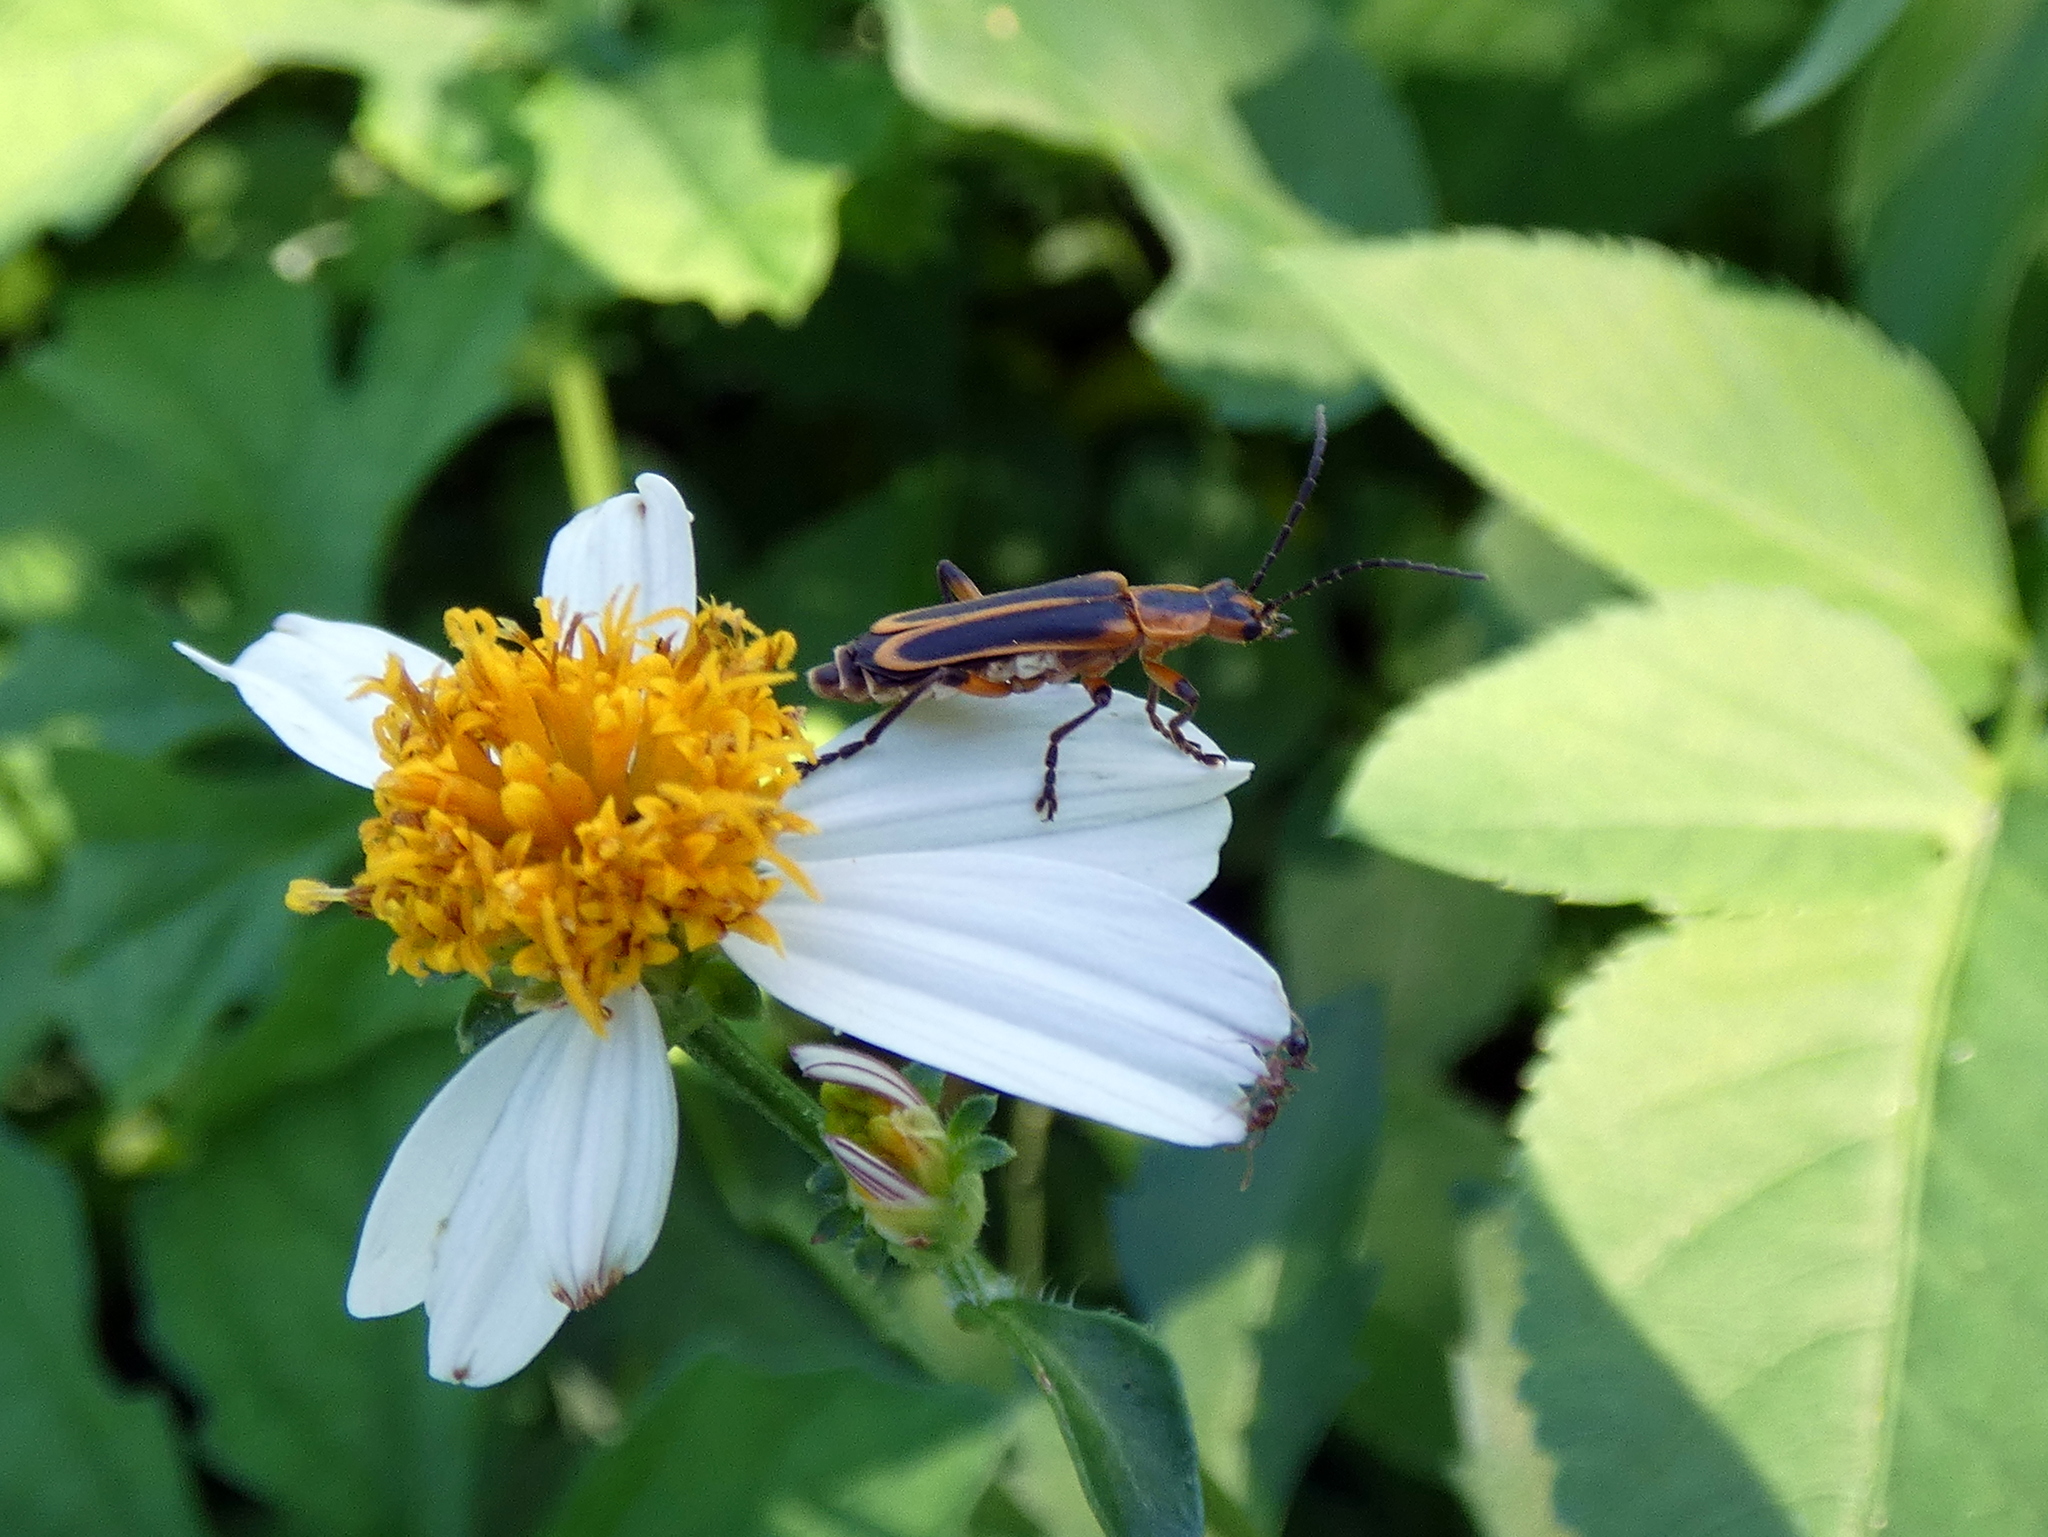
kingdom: Animalia
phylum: Arthropoda
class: Insecta
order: Coleoptera
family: Cantharidae
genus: Chauliognathus
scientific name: Chauliognathus marginatus
